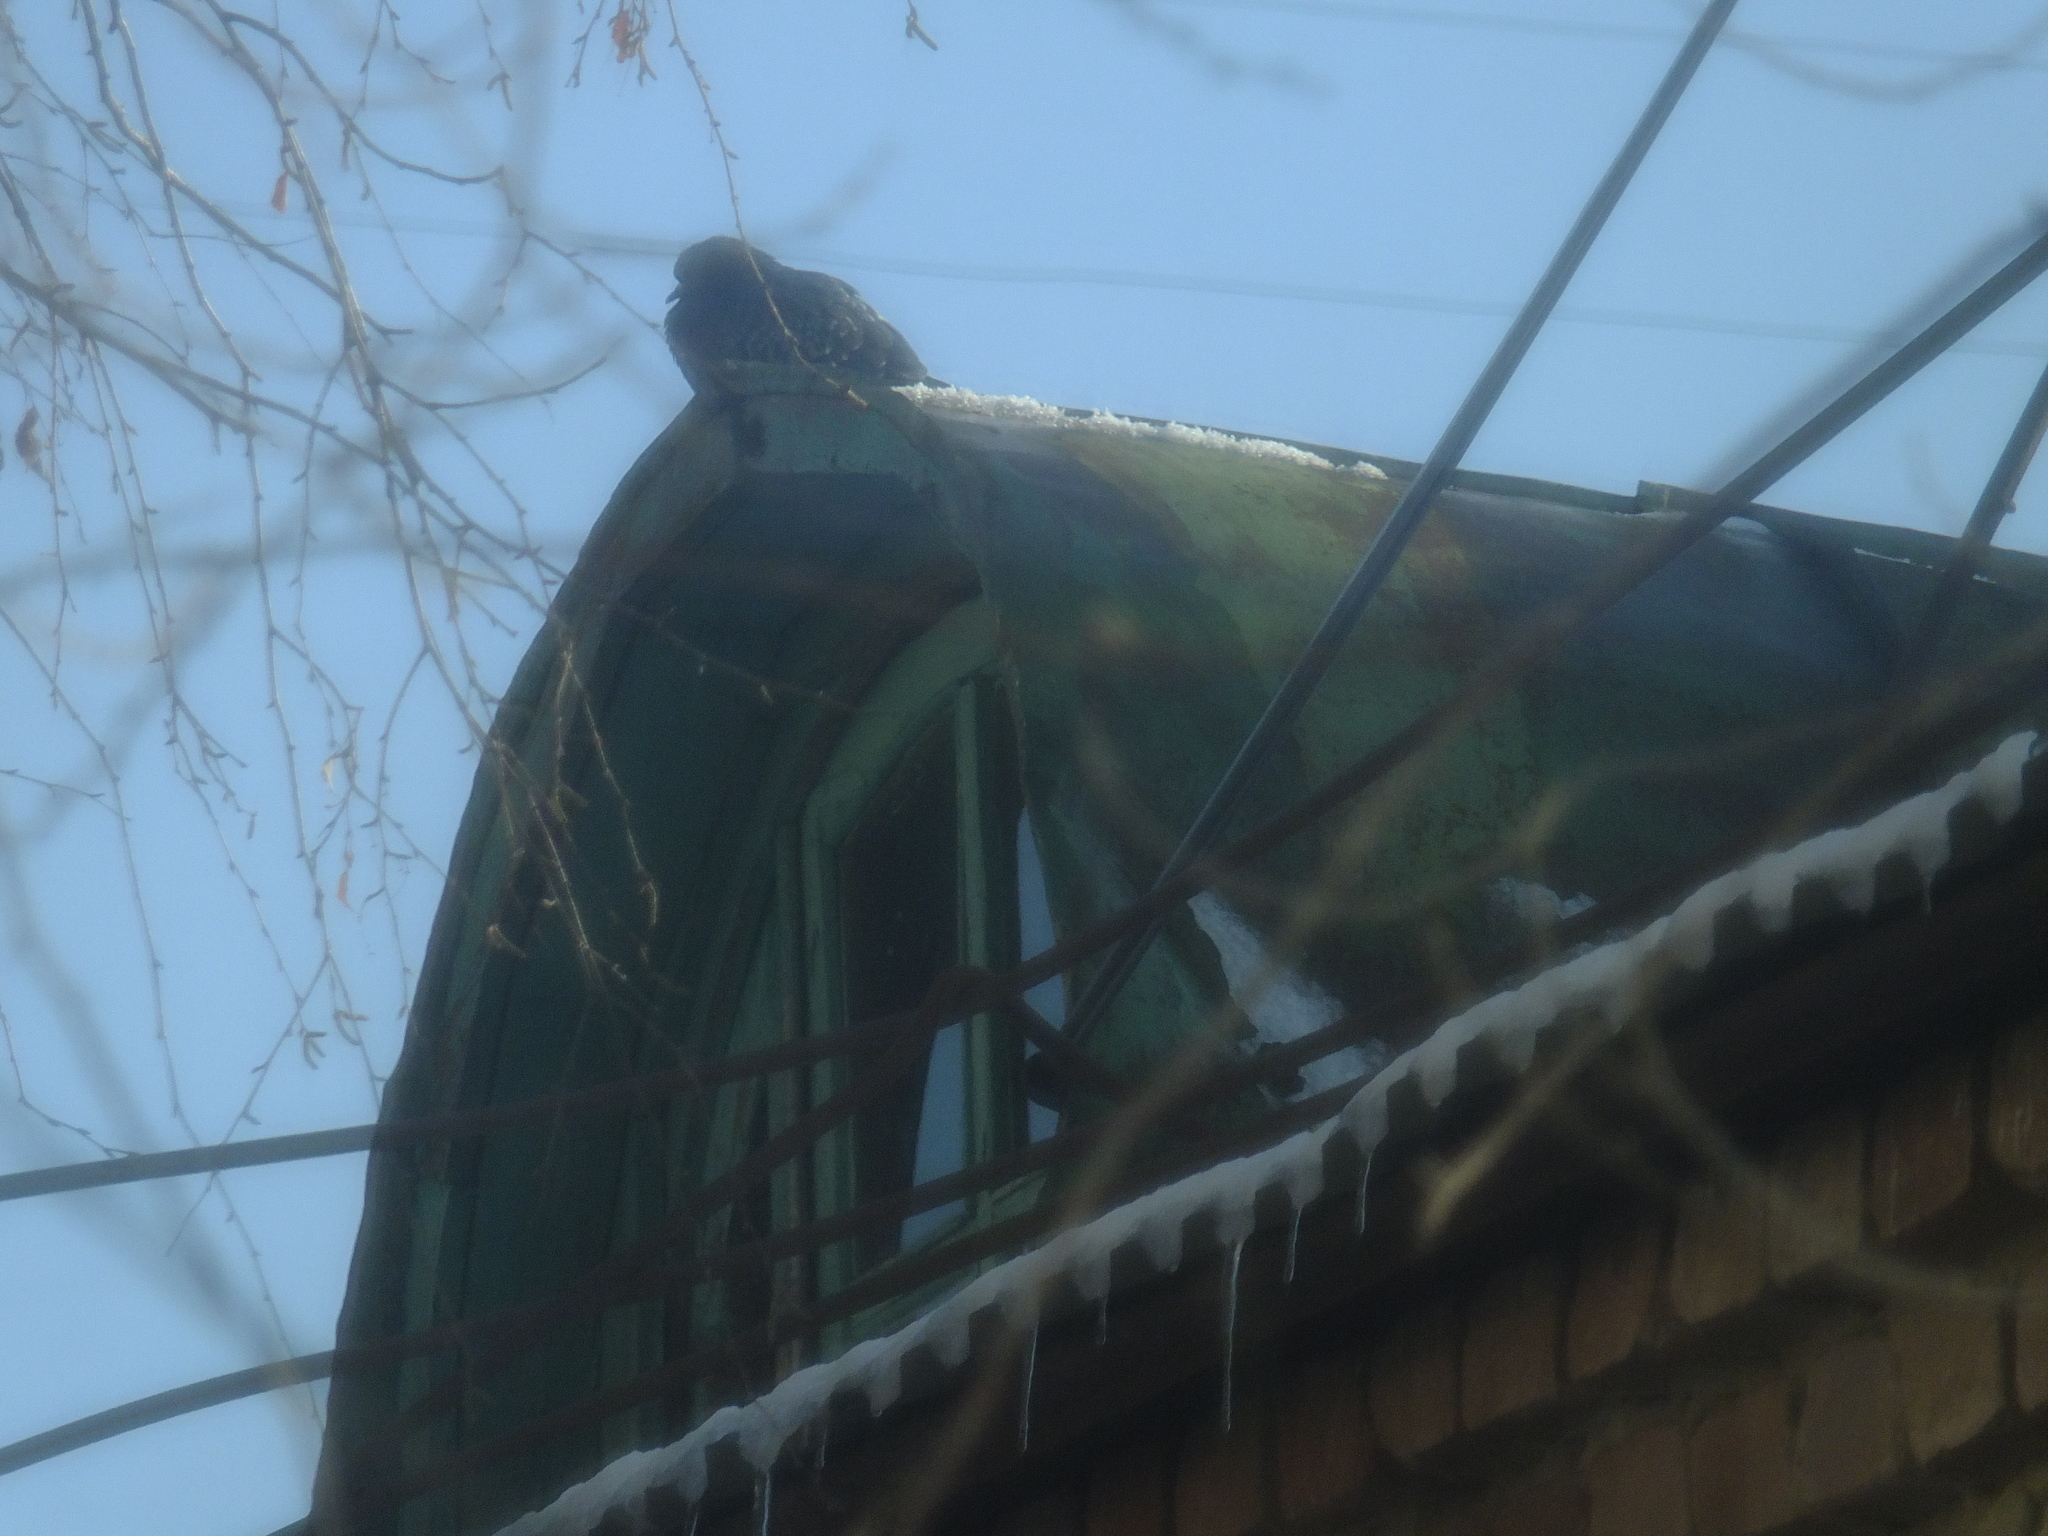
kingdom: Animalia
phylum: Chordata
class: Aves
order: Columbiformes
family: Columbidae
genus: Columba
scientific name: Columba livia
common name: Rock pigeon
